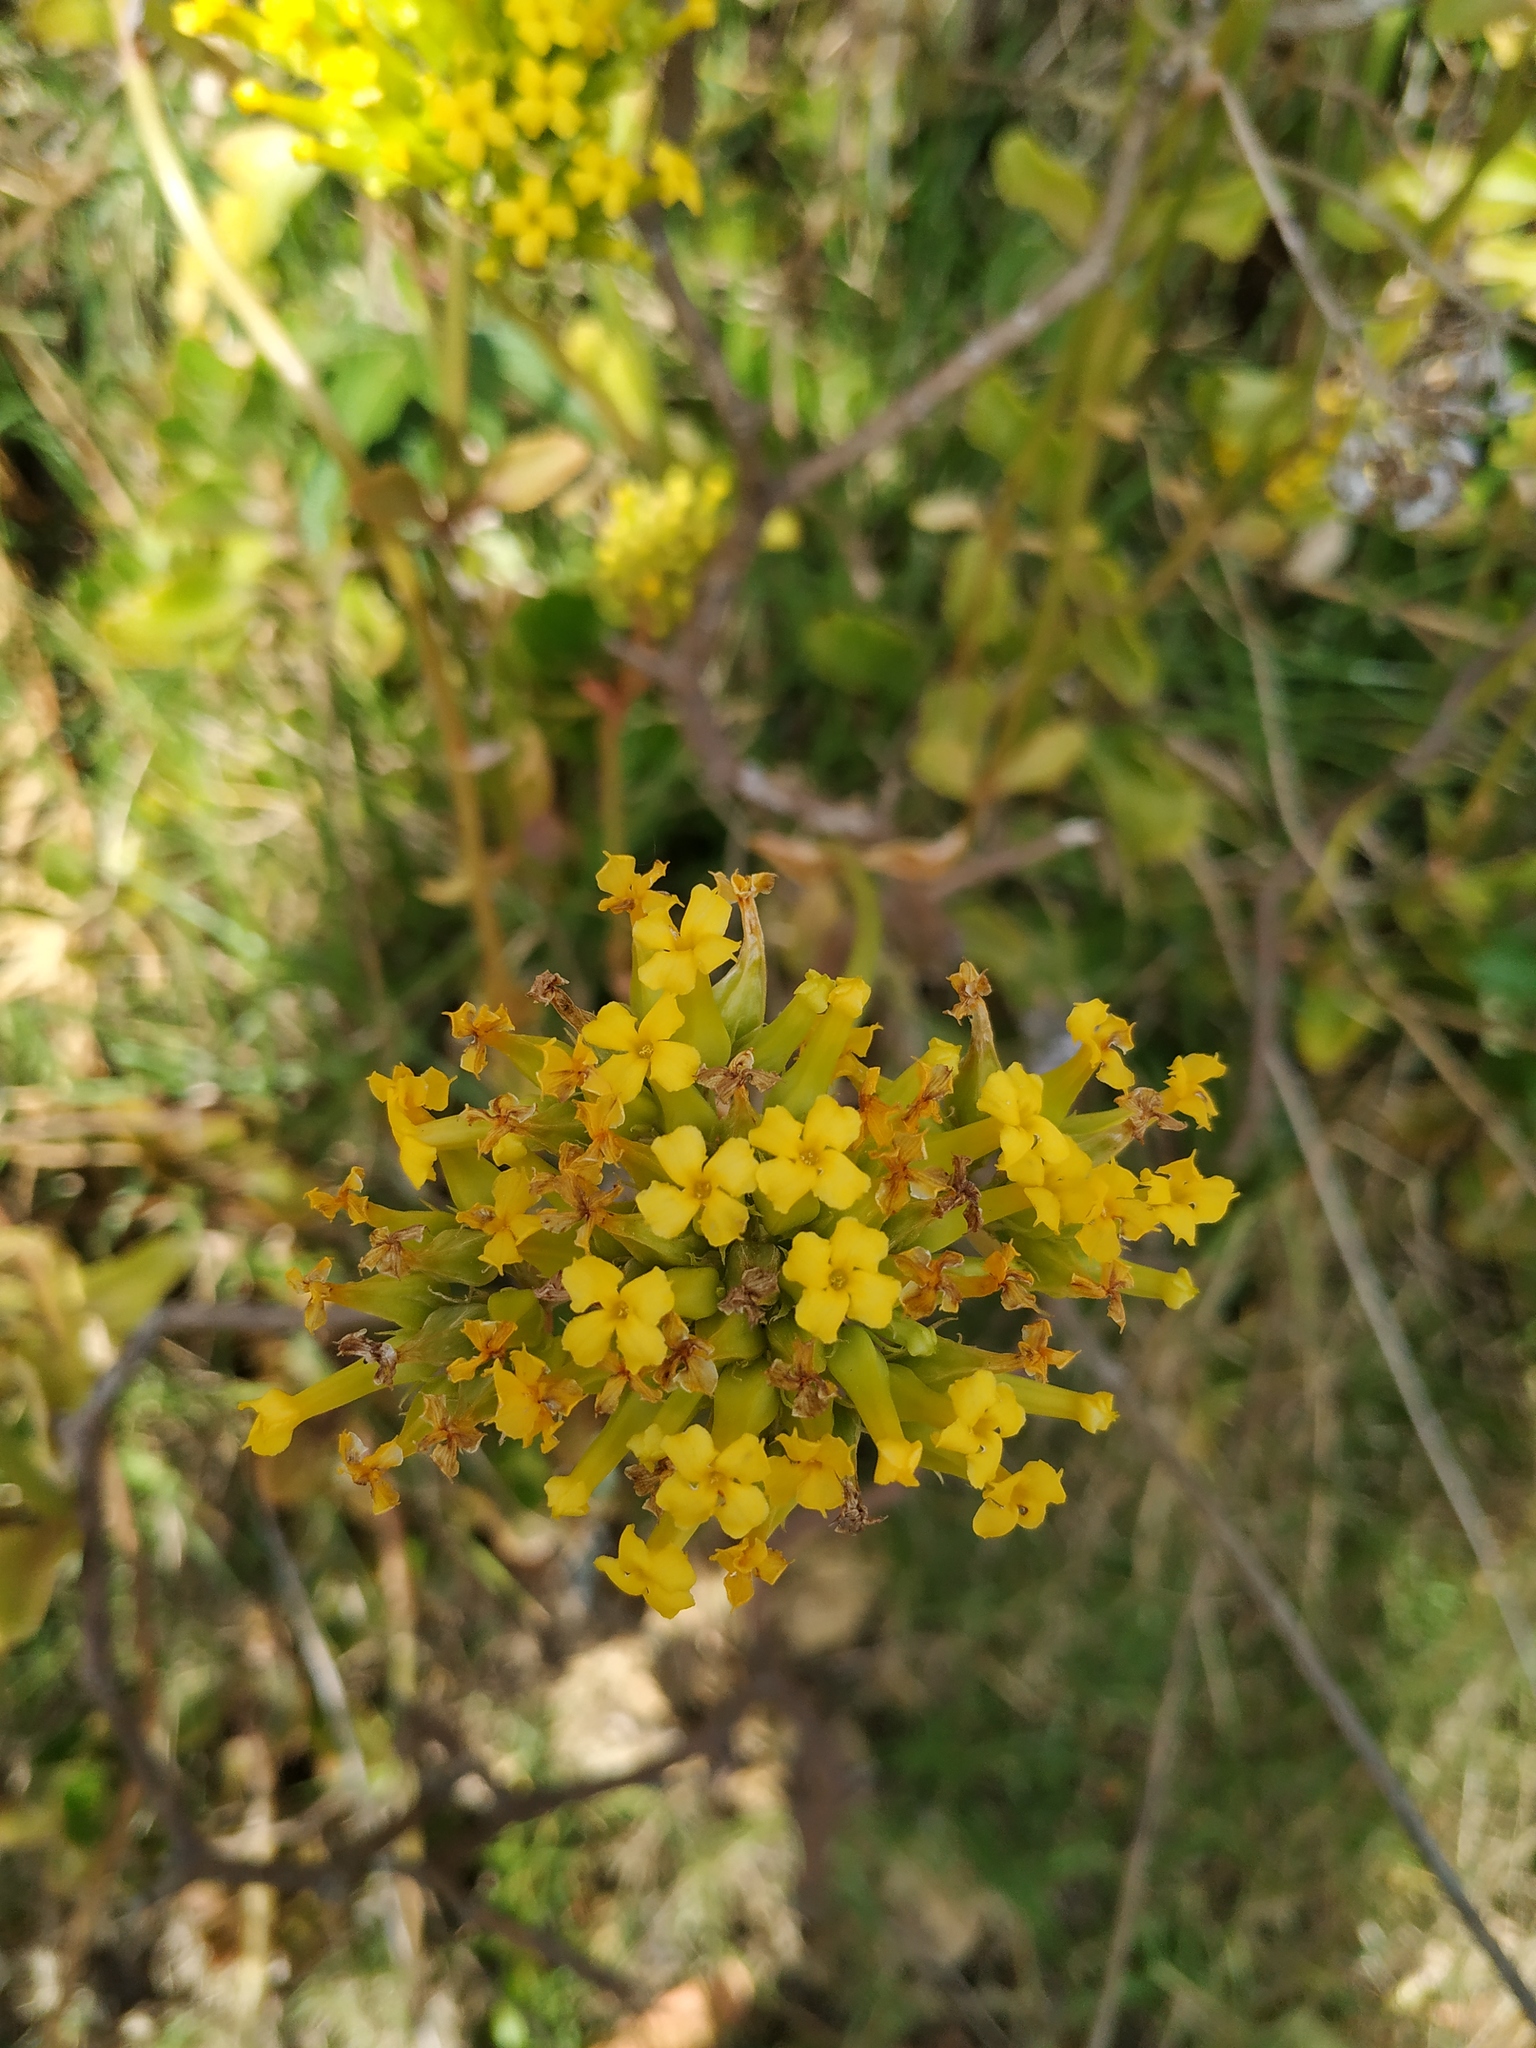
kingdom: Plantae
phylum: Tracheophyta
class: Magnoliopsida
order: Saxifragales
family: Crassulaceae
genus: Kalanchoe
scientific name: Kalanchoe densiflora
